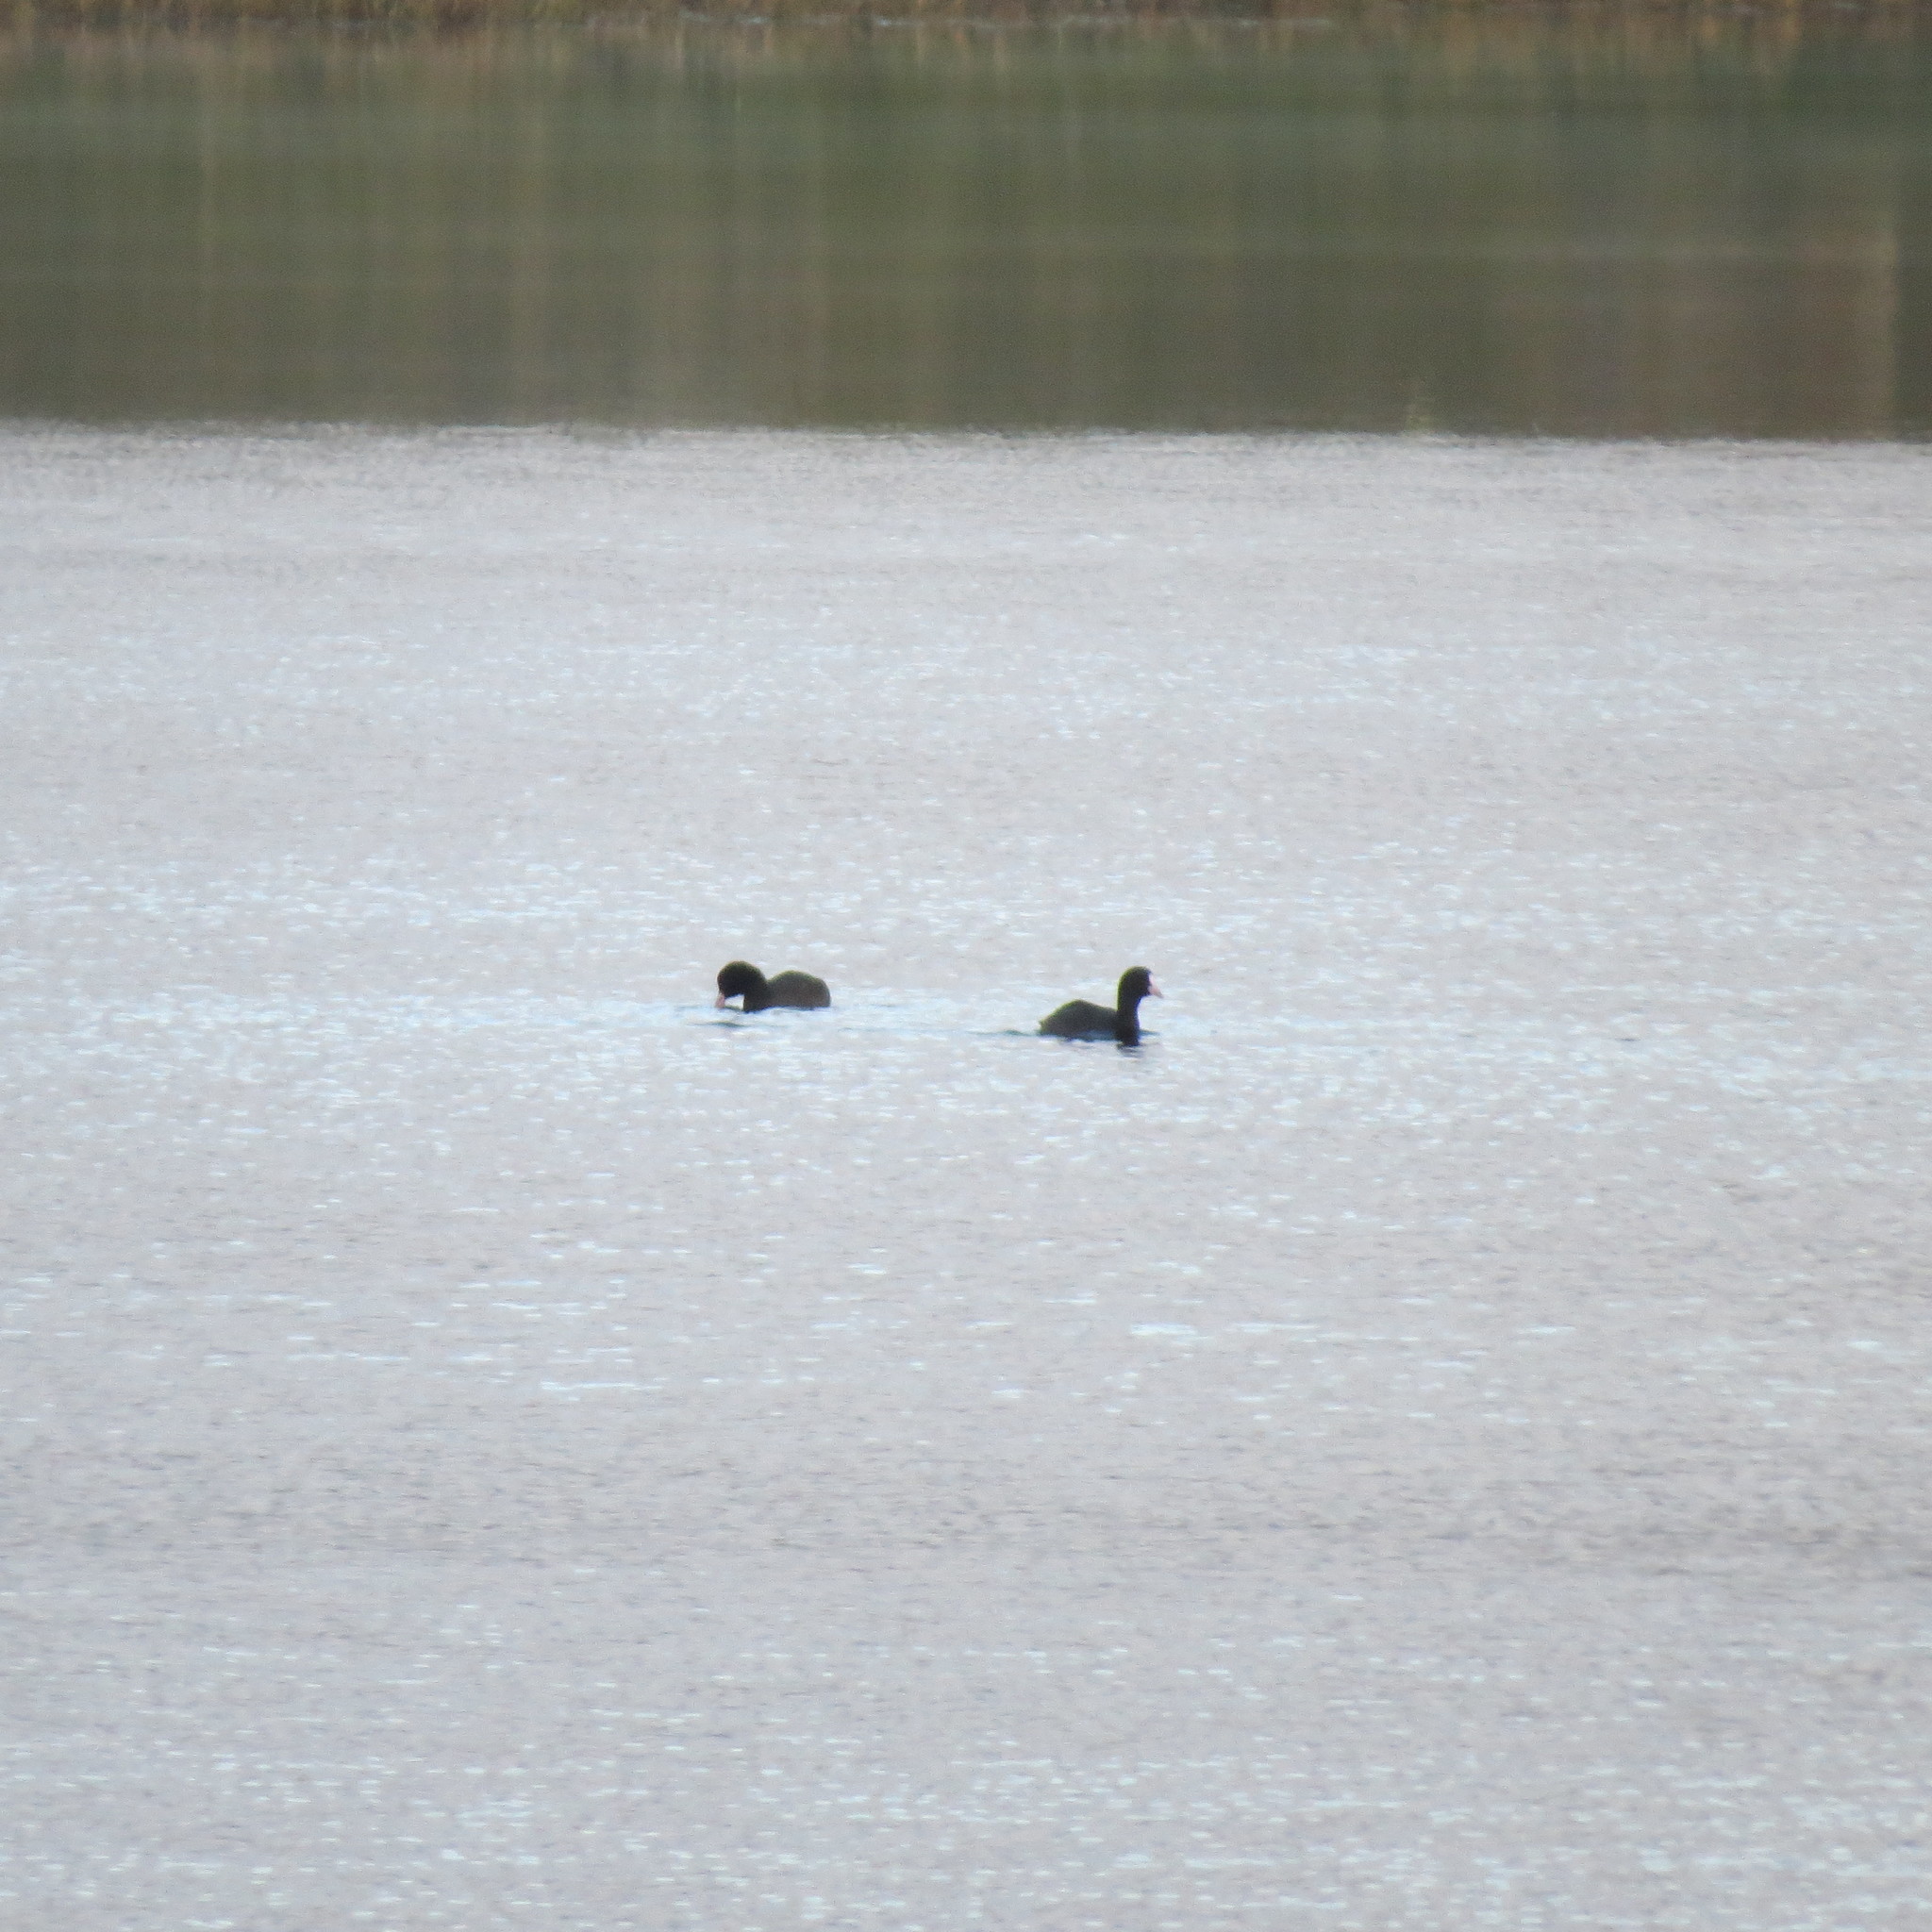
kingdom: Animalia
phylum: Chordata
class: Aves
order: Gruiformes
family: Rallidae
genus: Fulica
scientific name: Fulica atra
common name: Eurasian coot
